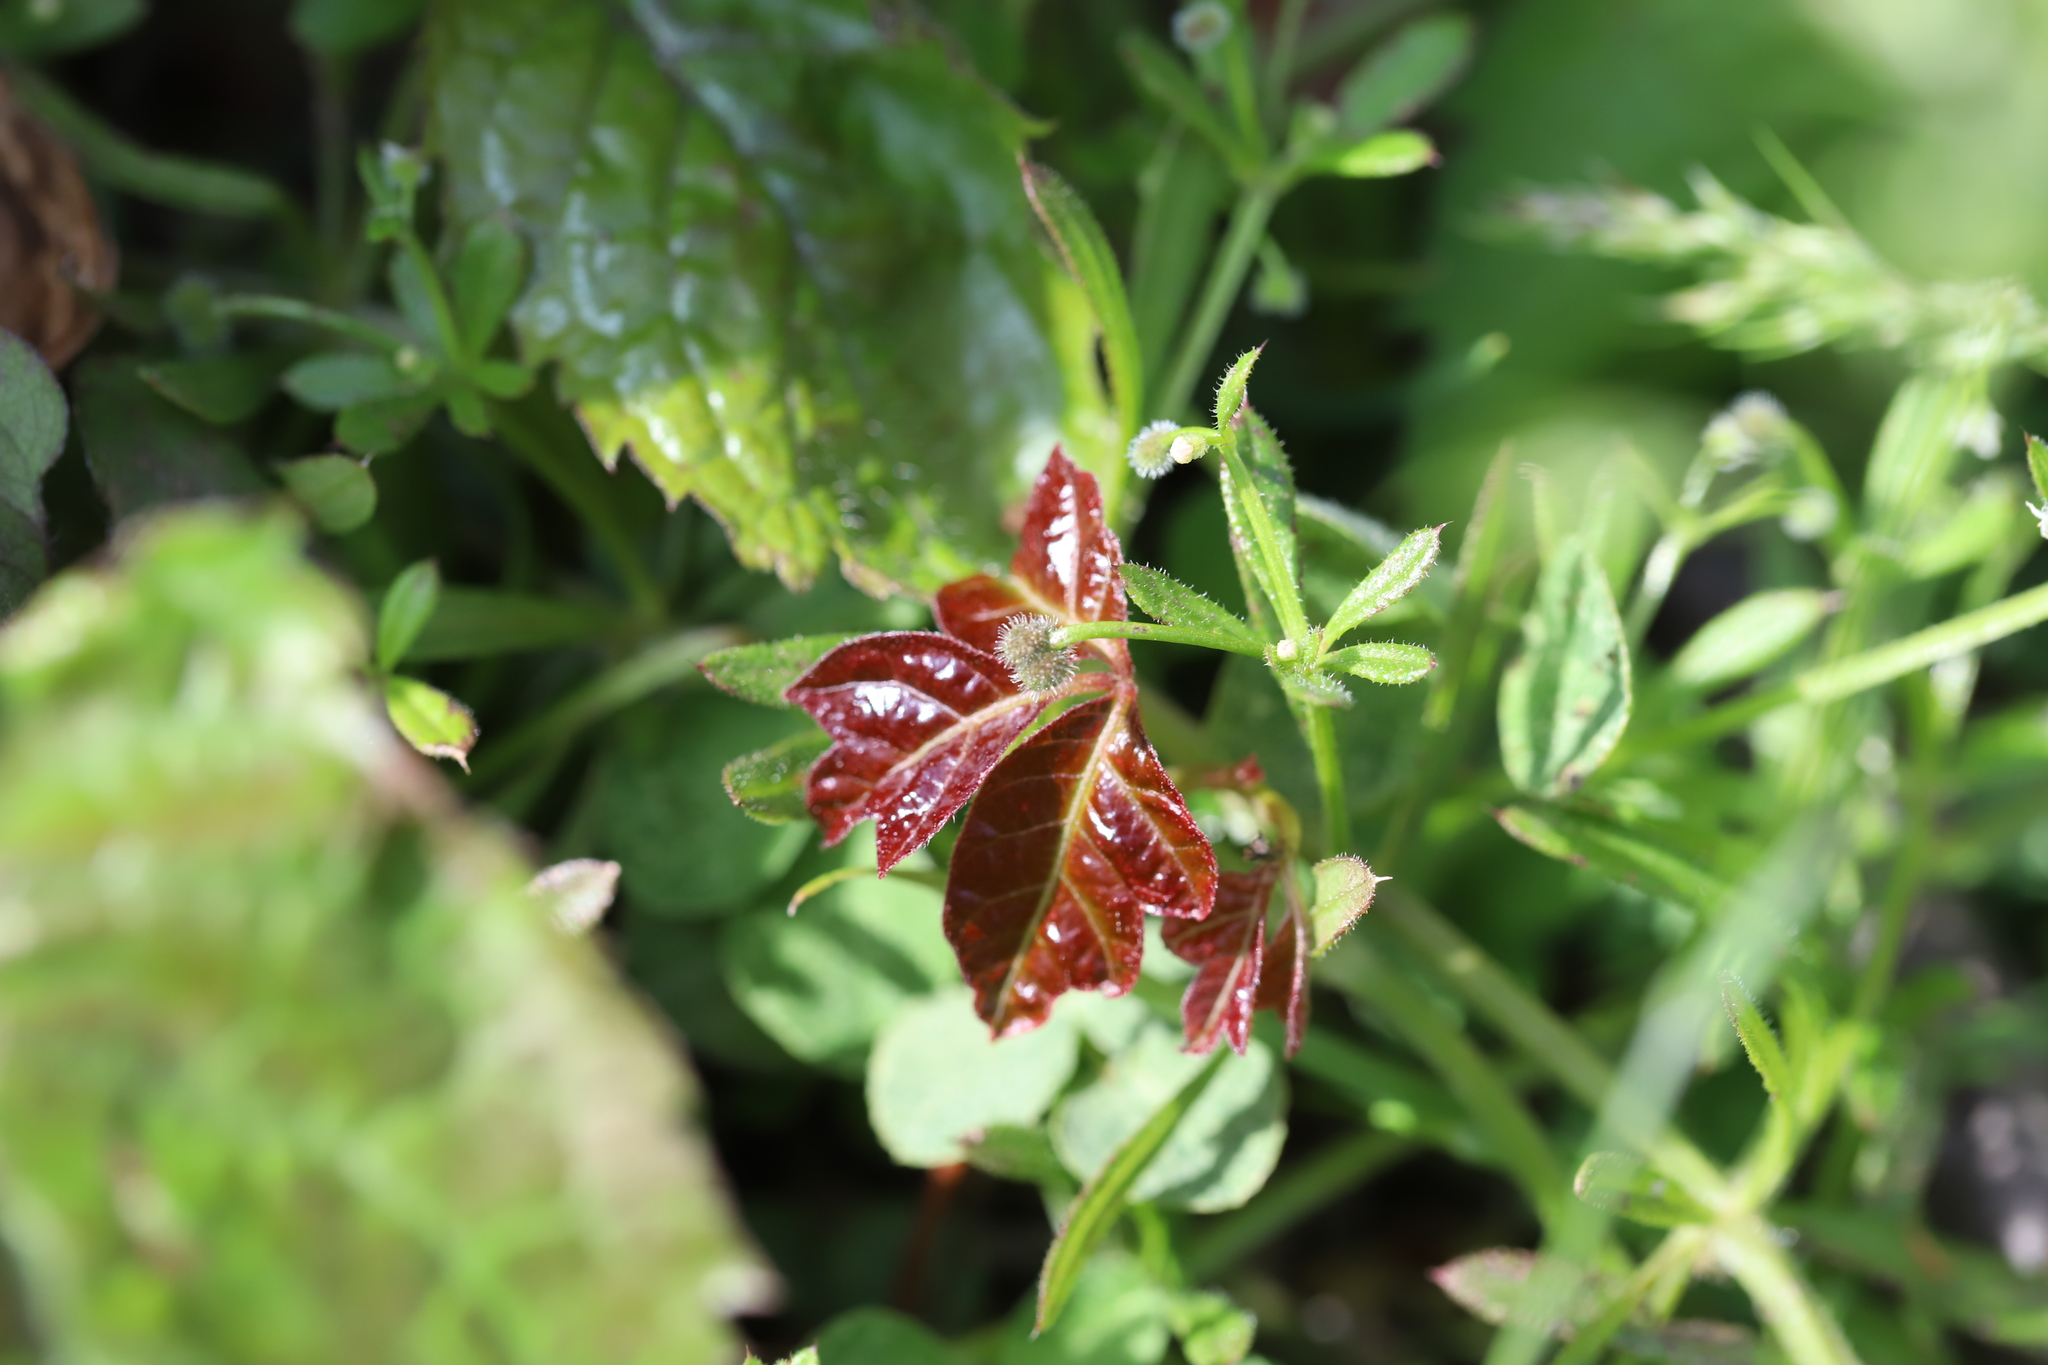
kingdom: Plantae
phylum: Tracheophyta
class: Magnoliopsida
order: Sapindales
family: Anacardiaceae
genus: Toxicodendron
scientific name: Toxicodendron radicans
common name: Poison ivy
